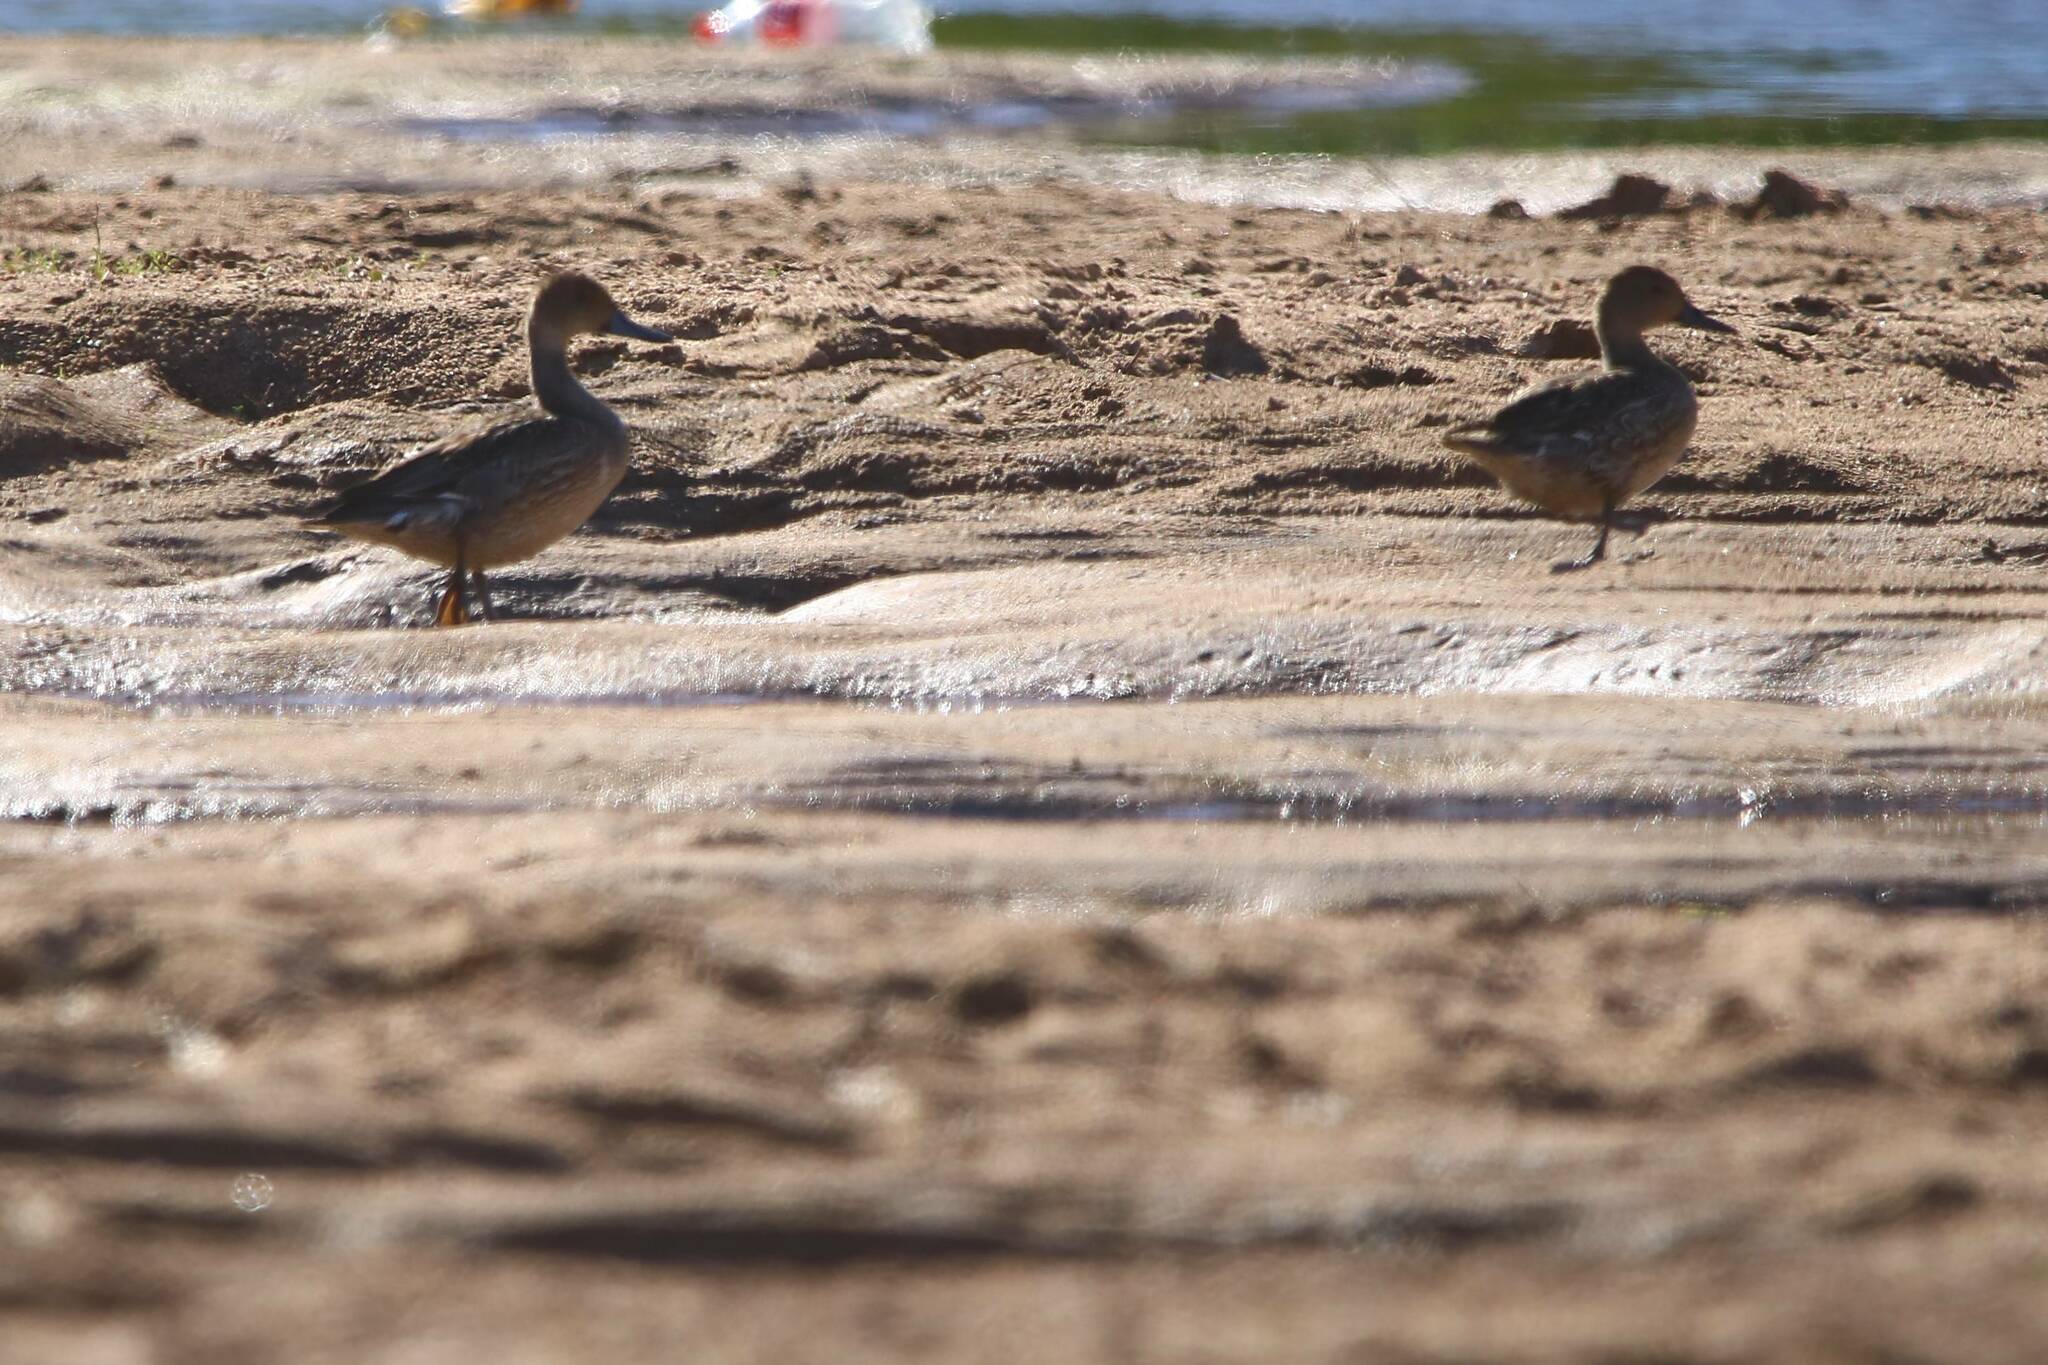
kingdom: Animalia
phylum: Chordata
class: Aves
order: Anseriformes
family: Anatidae
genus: Anas
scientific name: Anas acuta
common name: Northern pintail
